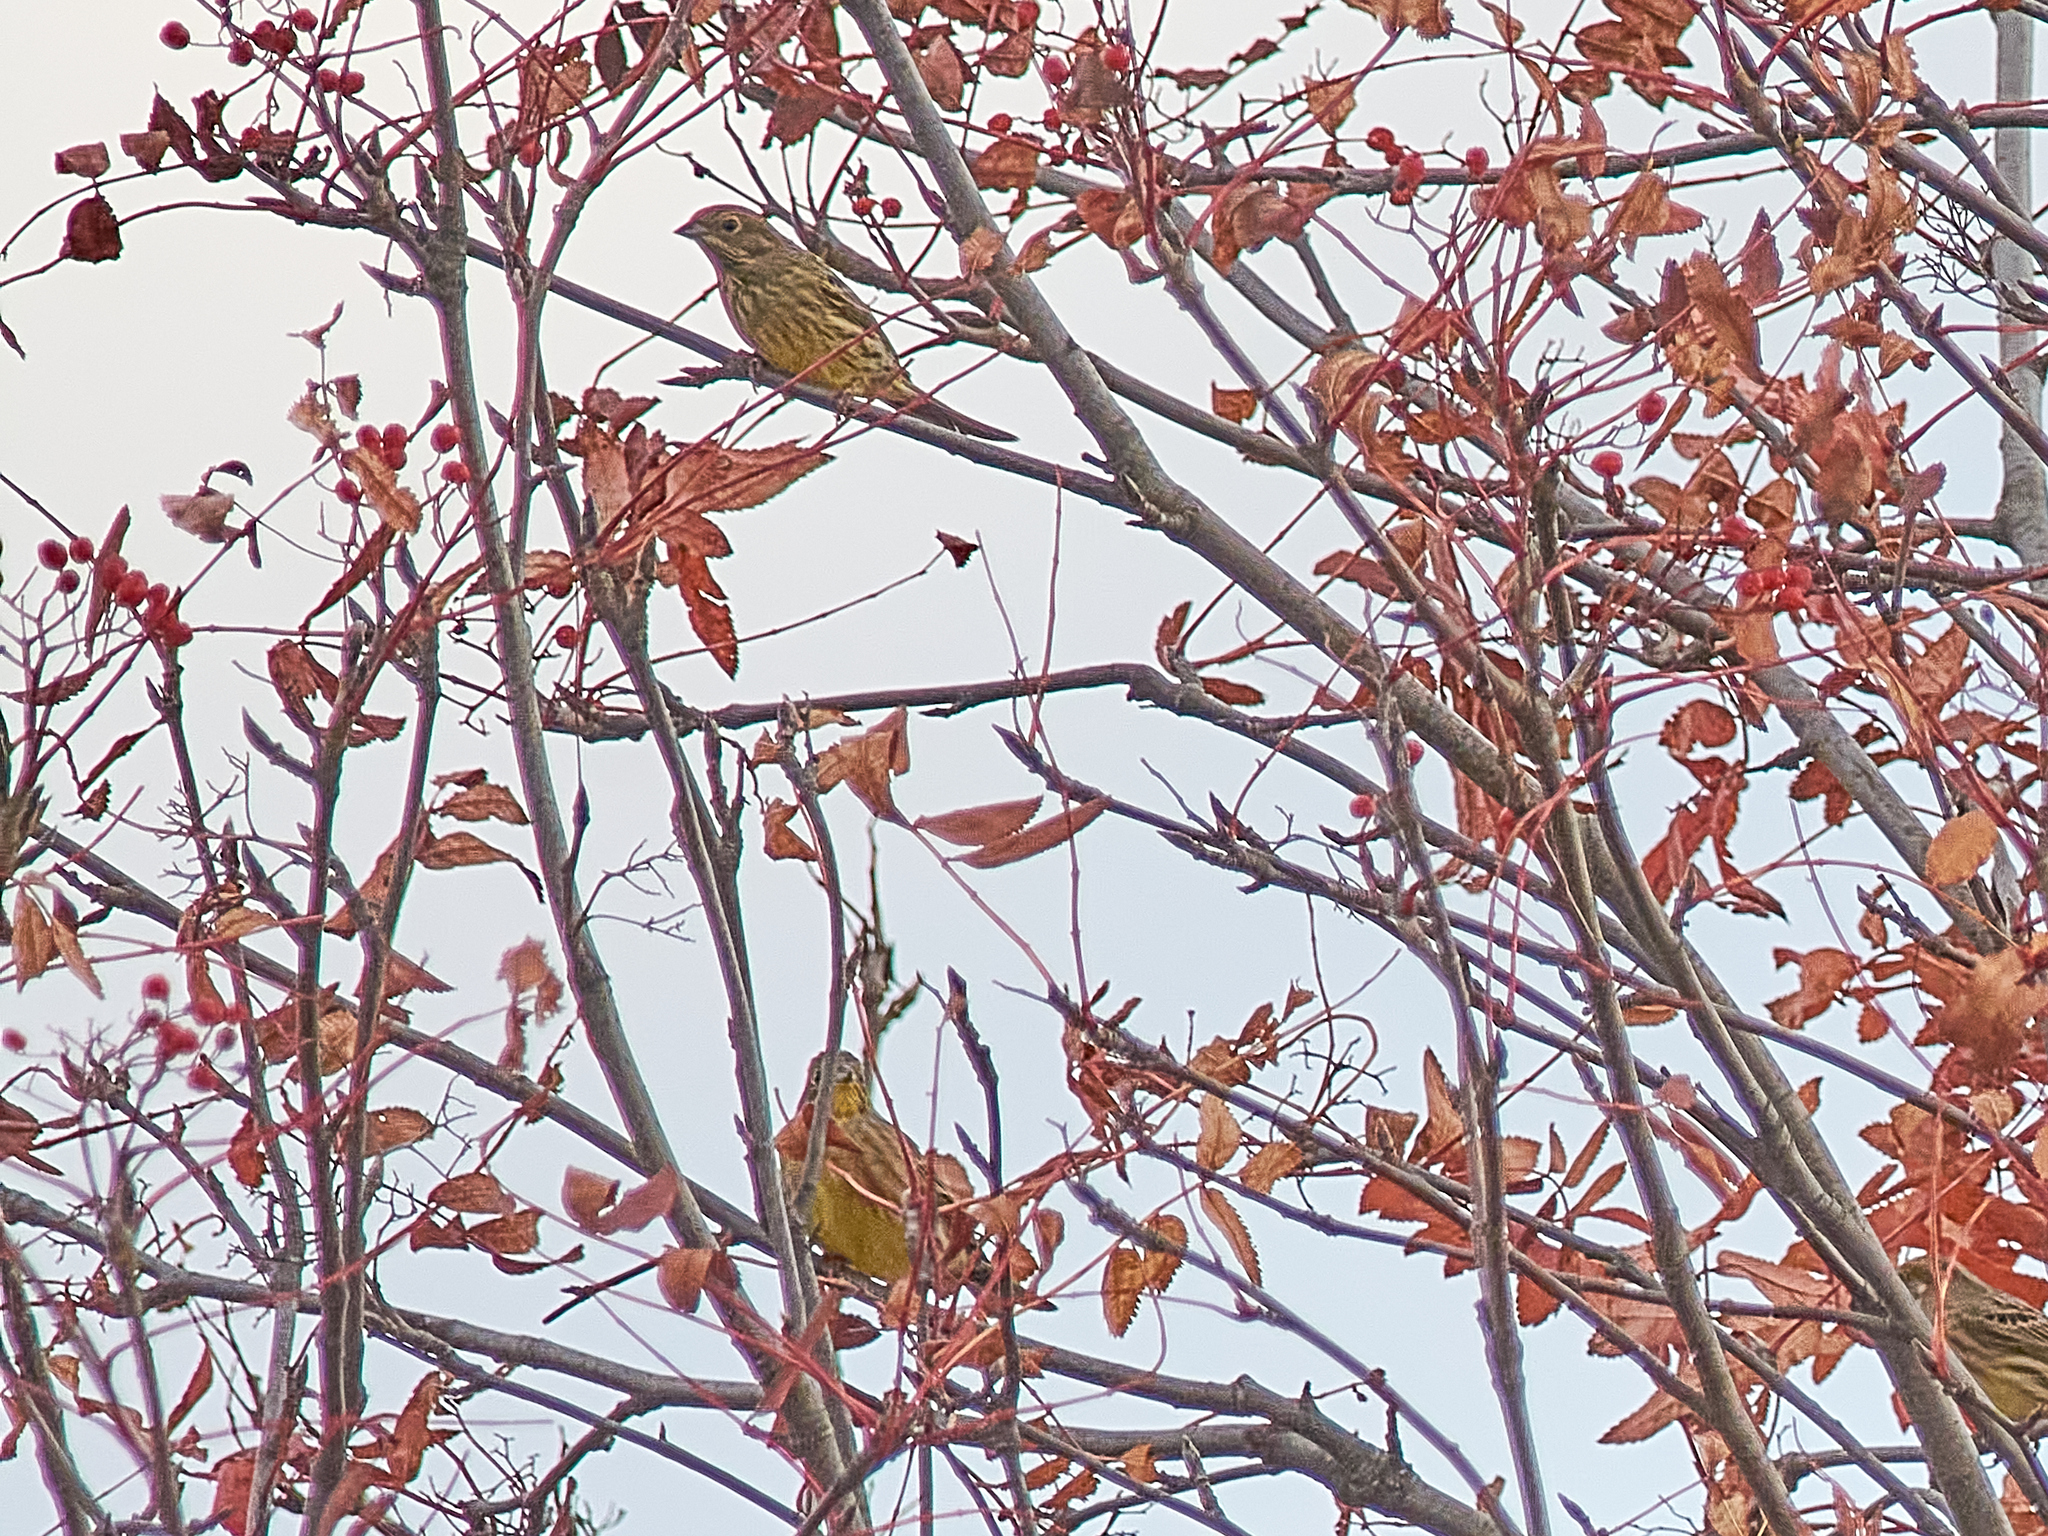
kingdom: Animalia
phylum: Chordata
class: Aves
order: Passeriformes
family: Emberizidae
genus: Emberiza
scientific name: Emberiza citrinella
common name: Yellowhammer
